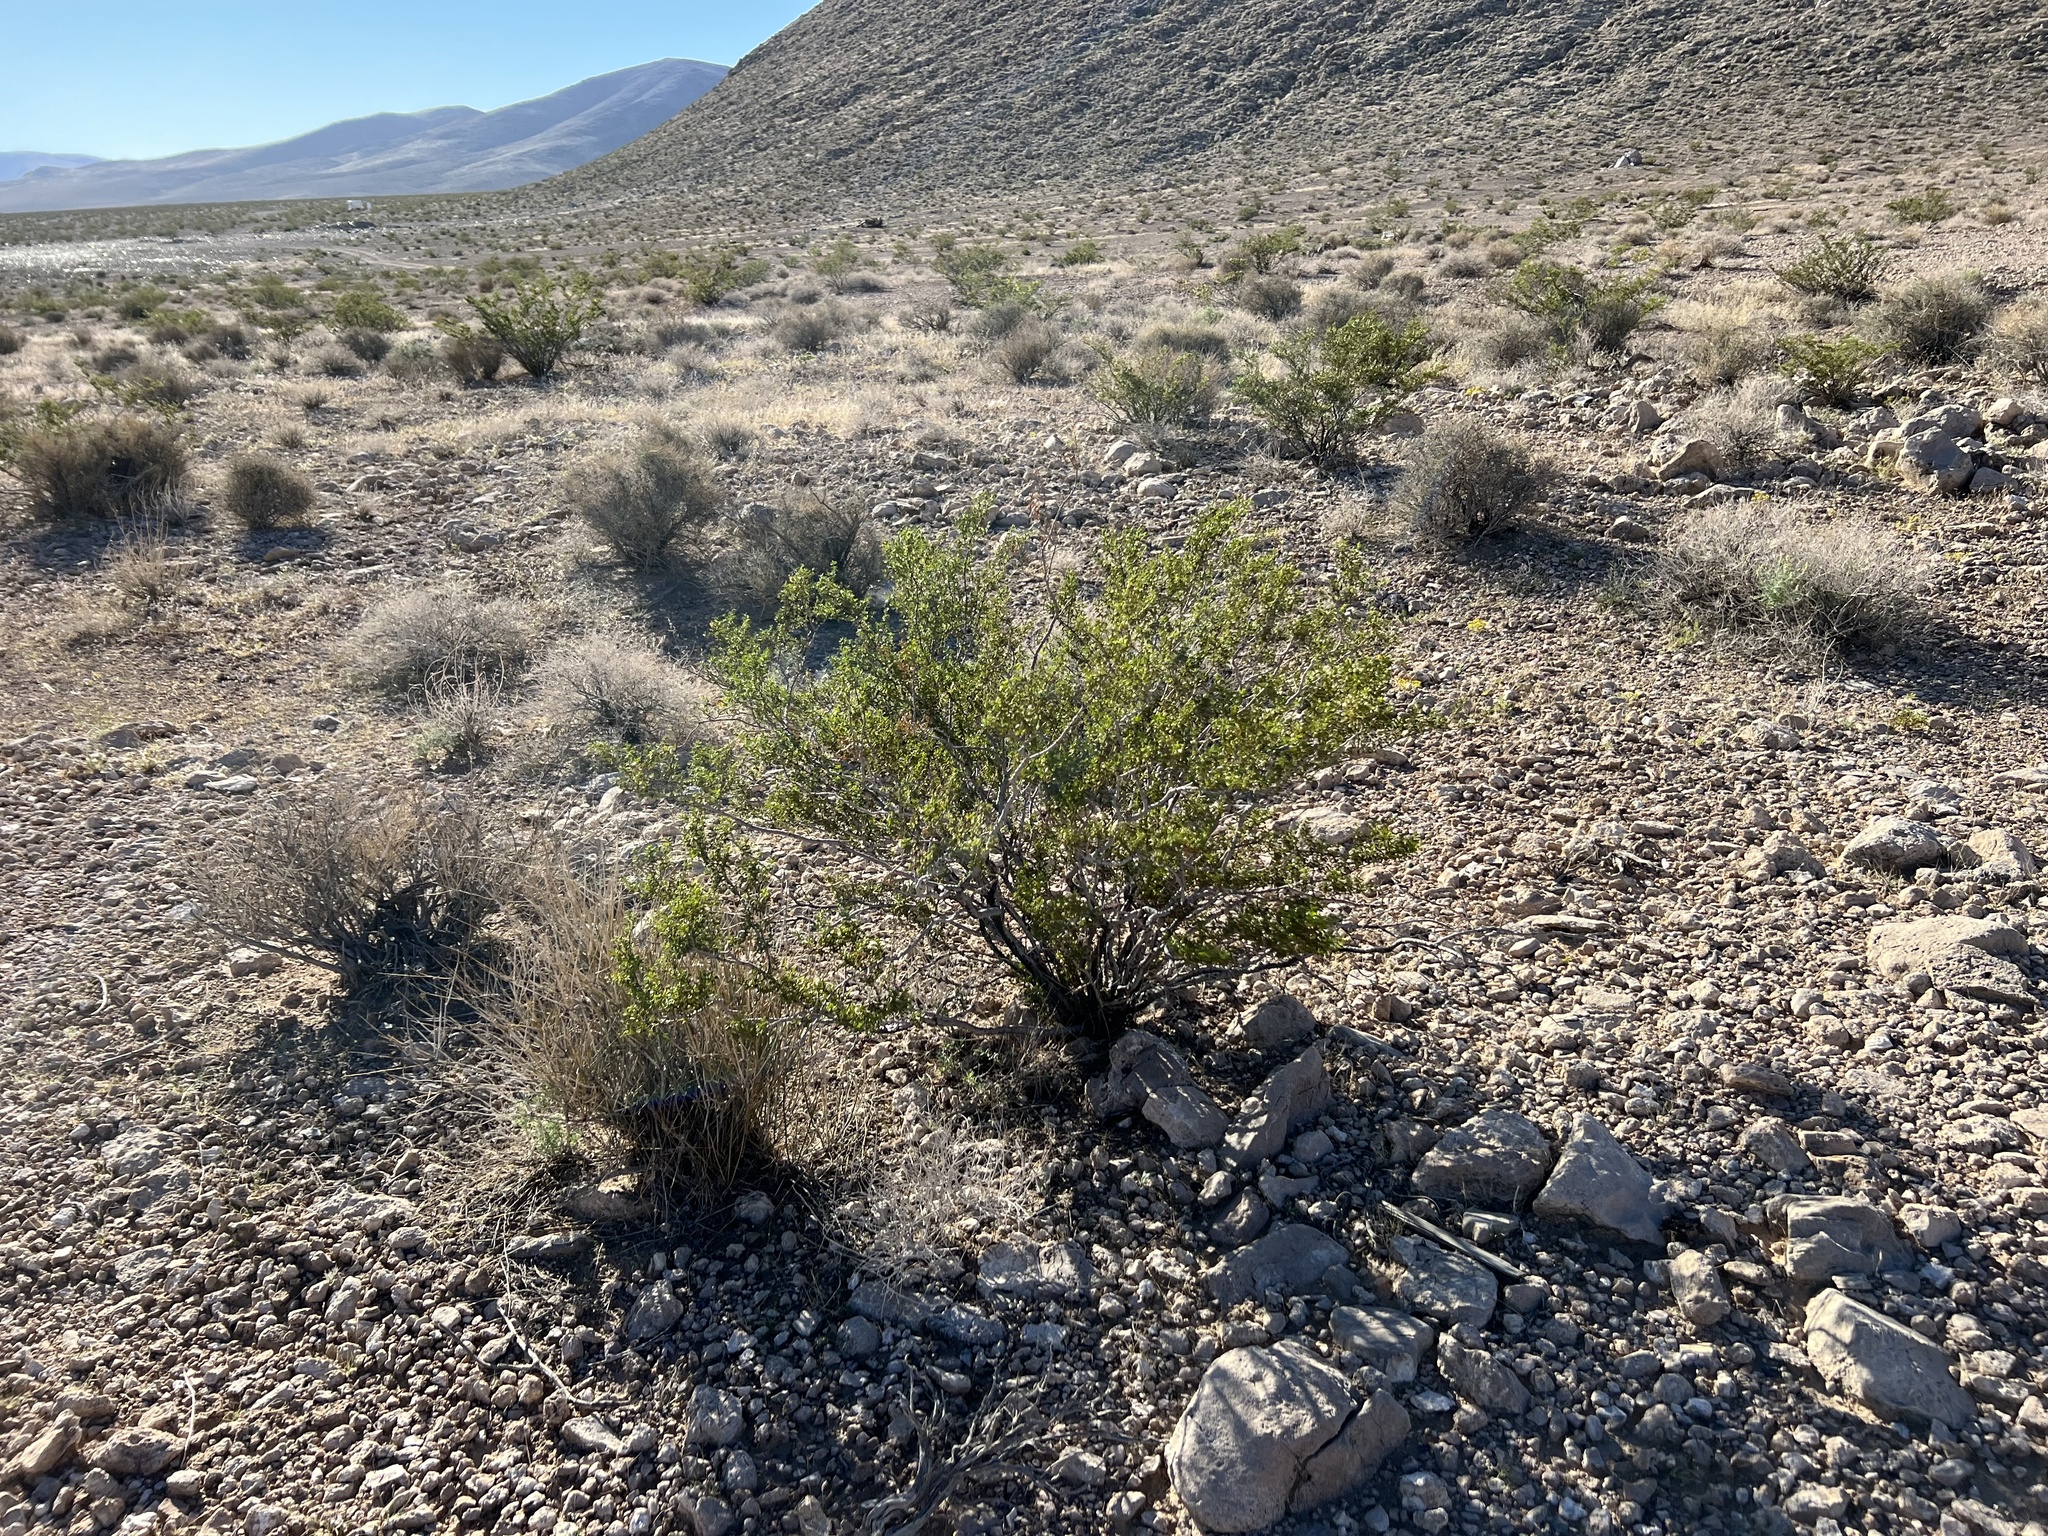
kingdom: Plantae
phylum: Tracheophyta
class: Magnoliopsida
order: Zygophyllales
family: Zygophyllaceae
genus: Larrea
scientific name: Larrea tridentata
